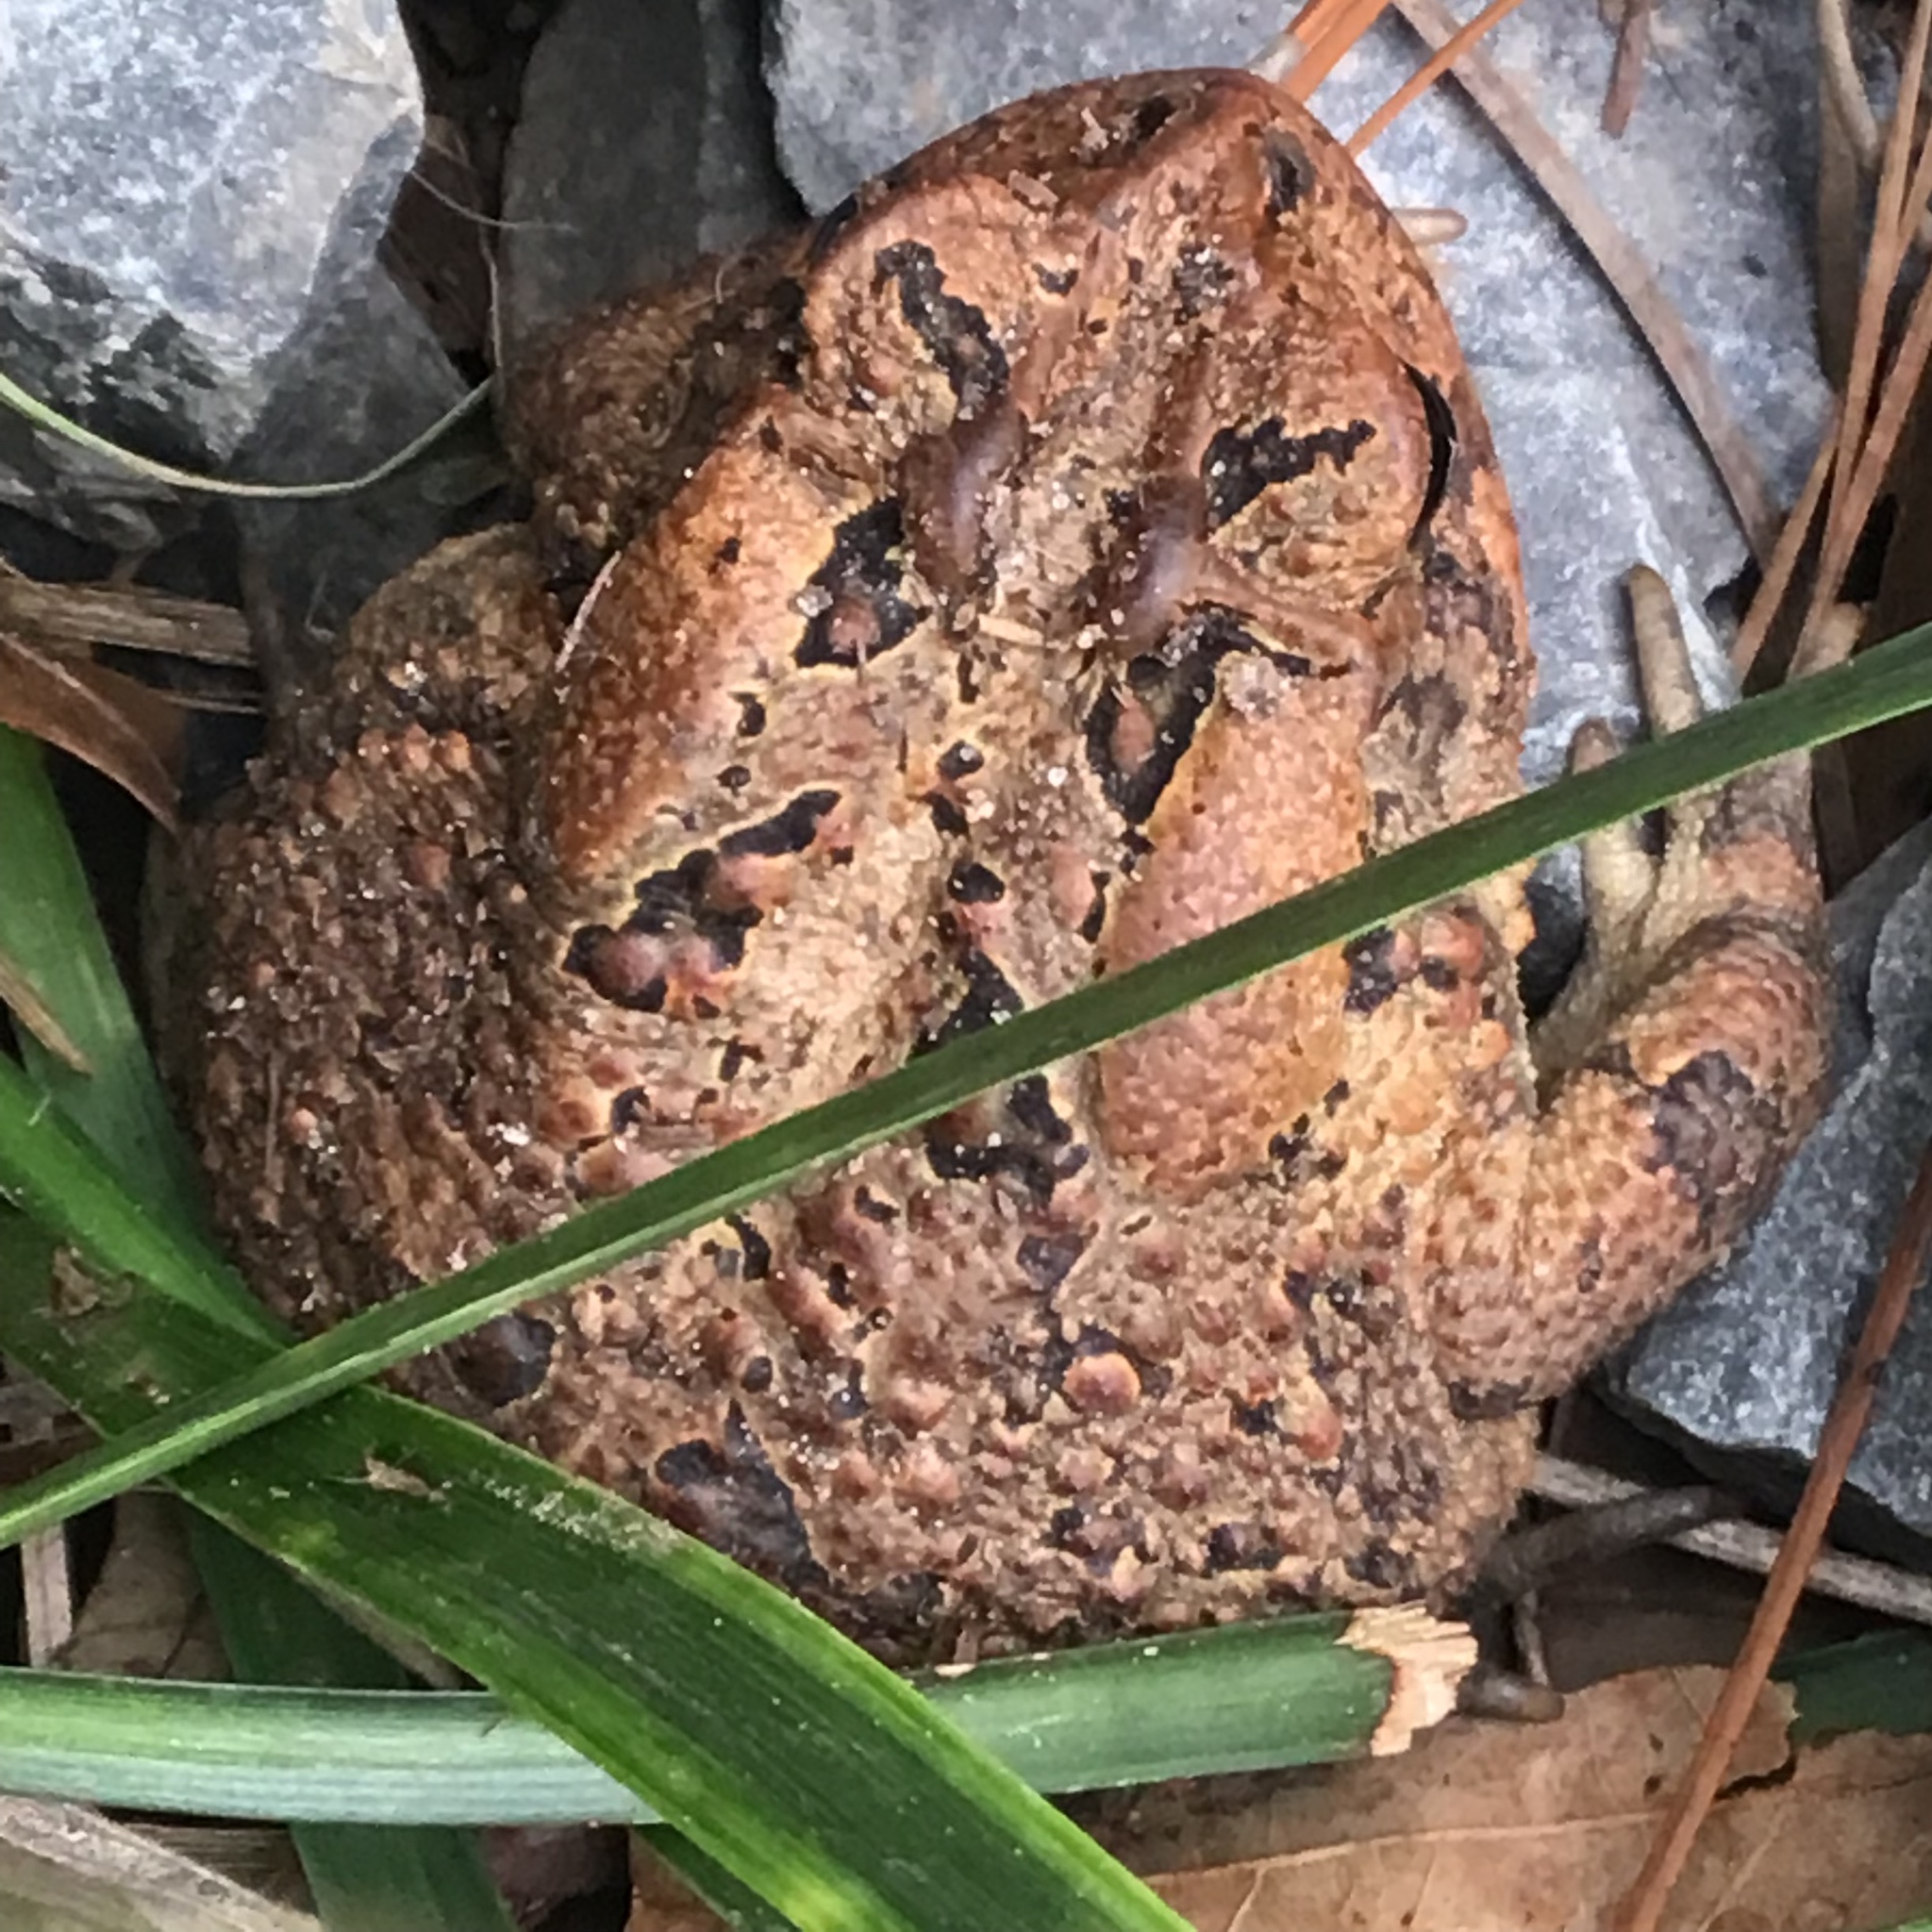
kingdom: Animalia
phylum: Chordata
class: Amphibia
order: Anura
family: Bufonidae
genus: Anaxyrus
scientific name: Anaxyrus terrestris
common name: Southern toad
